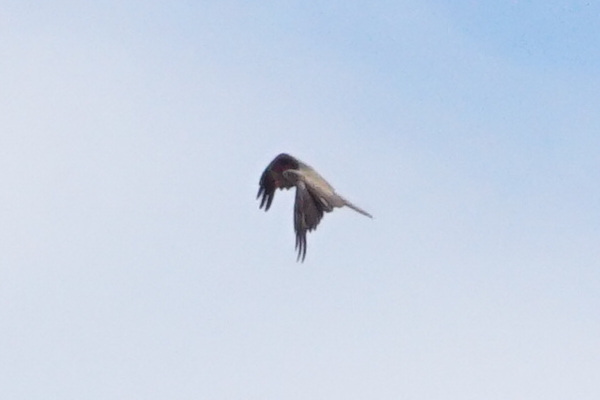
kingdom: Animalia
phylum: Chordata
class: Aves
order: Accipitriformes
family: Accipitridae
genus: Milvus
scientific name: Milvus migrans
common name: Black kite
